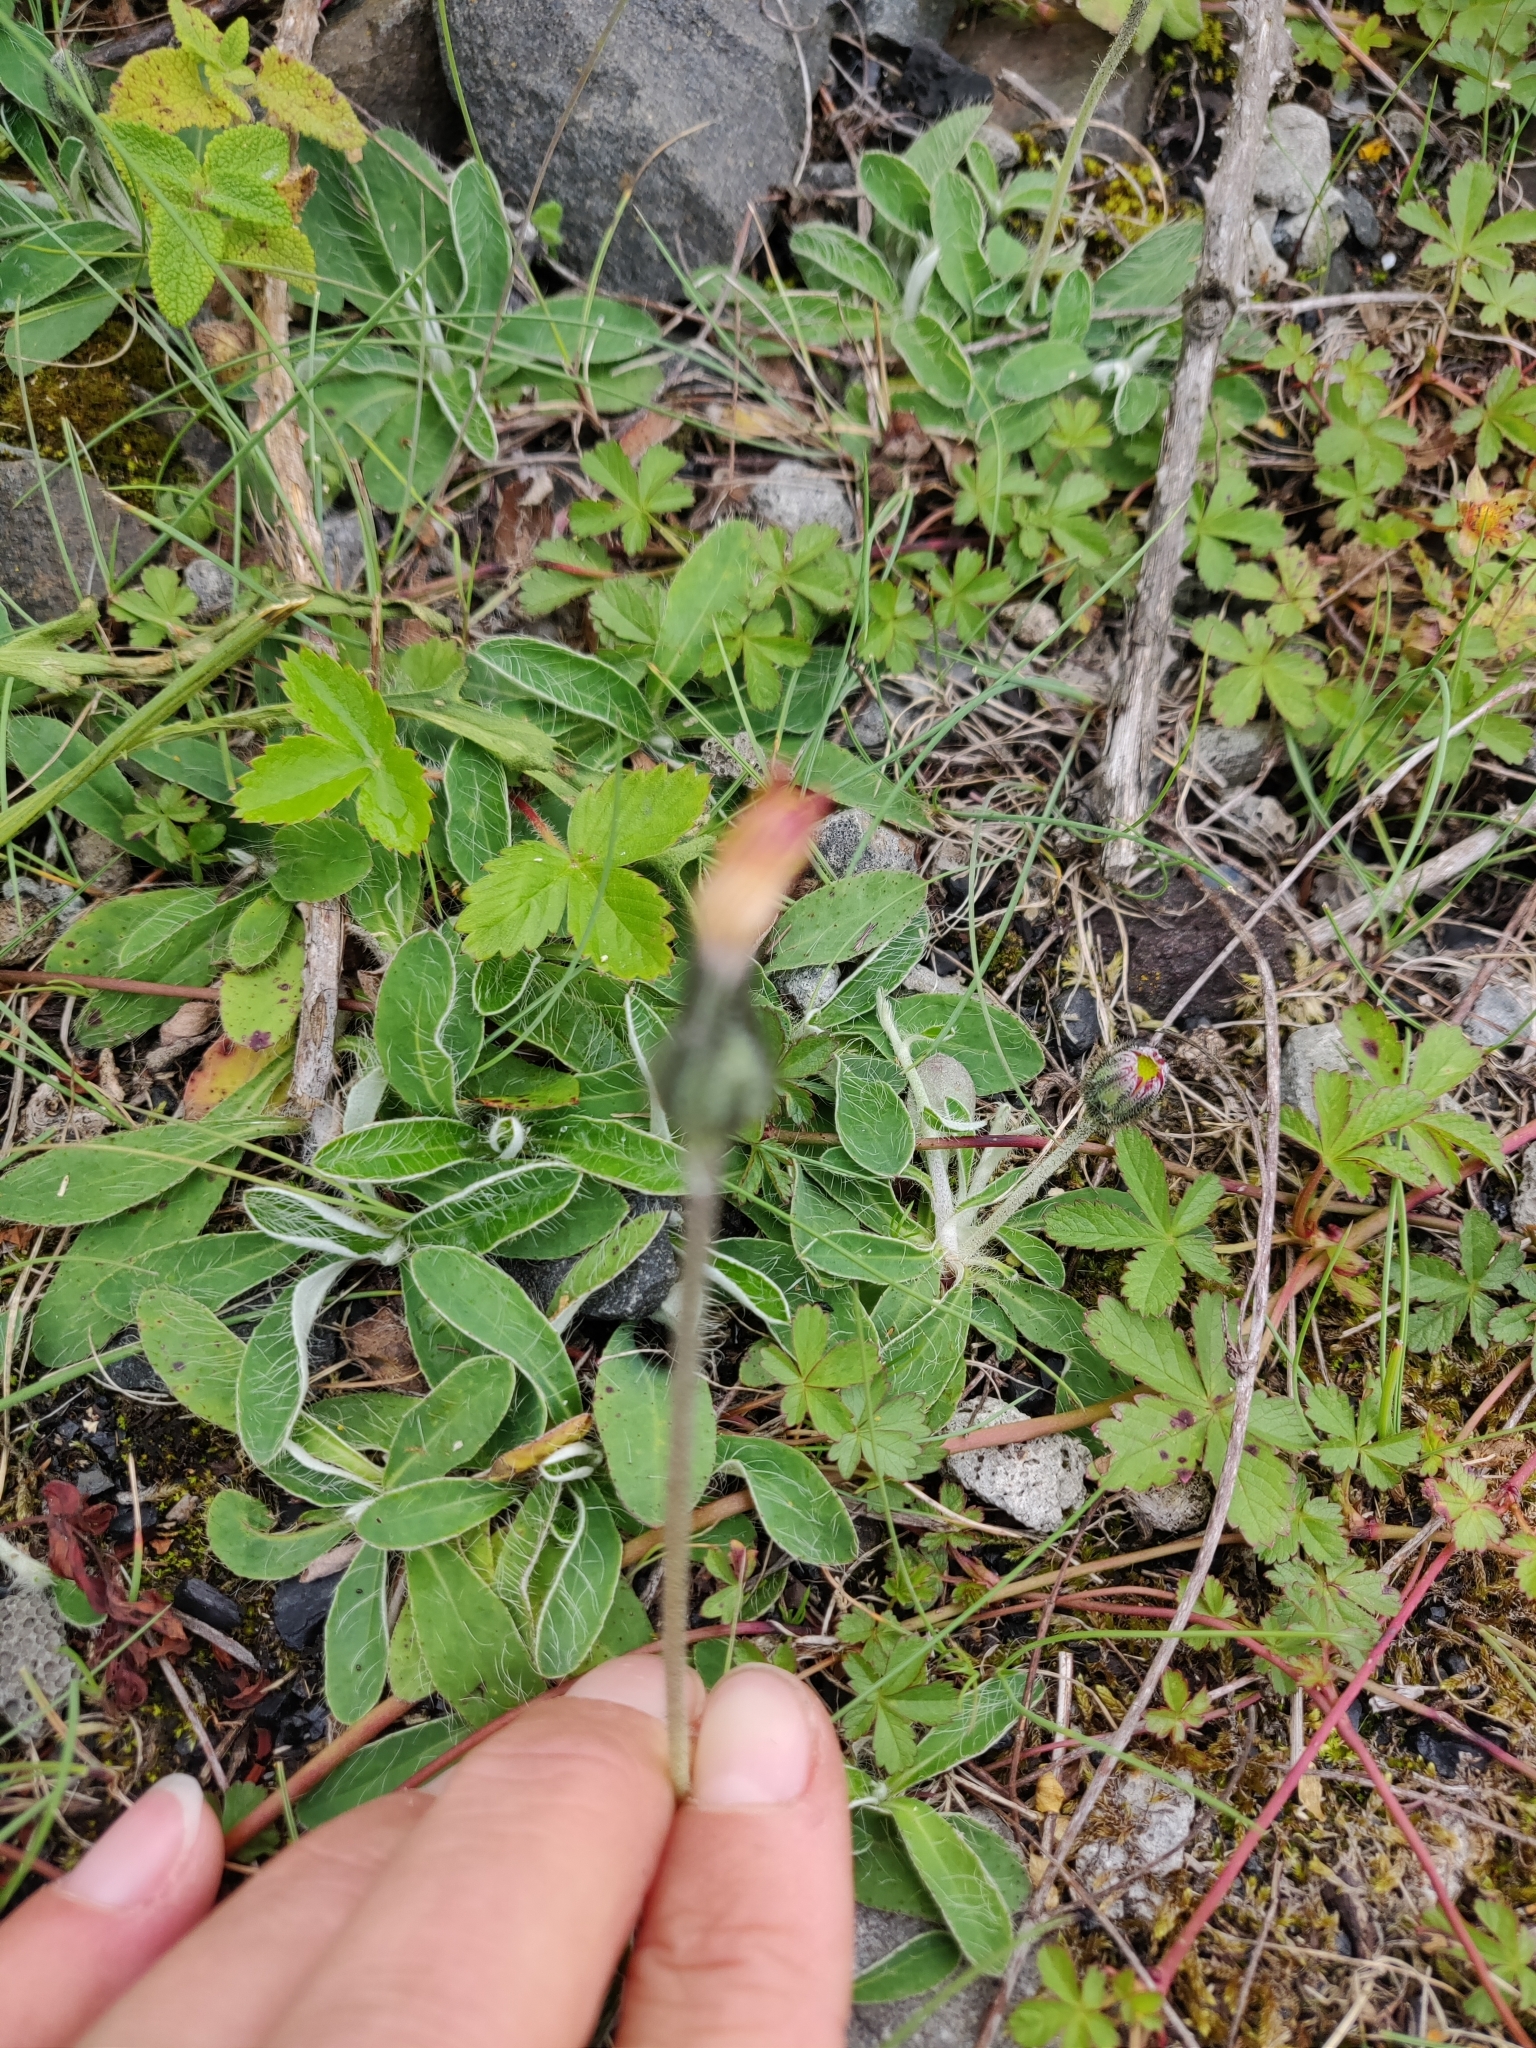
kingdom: Plantae
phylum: Tracheophyta
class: Magnoliopsida
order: Asterales
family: Asteraceae
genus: Pilosella
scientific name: Pilosella officinarum
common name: Mouse-ear hawkweed
